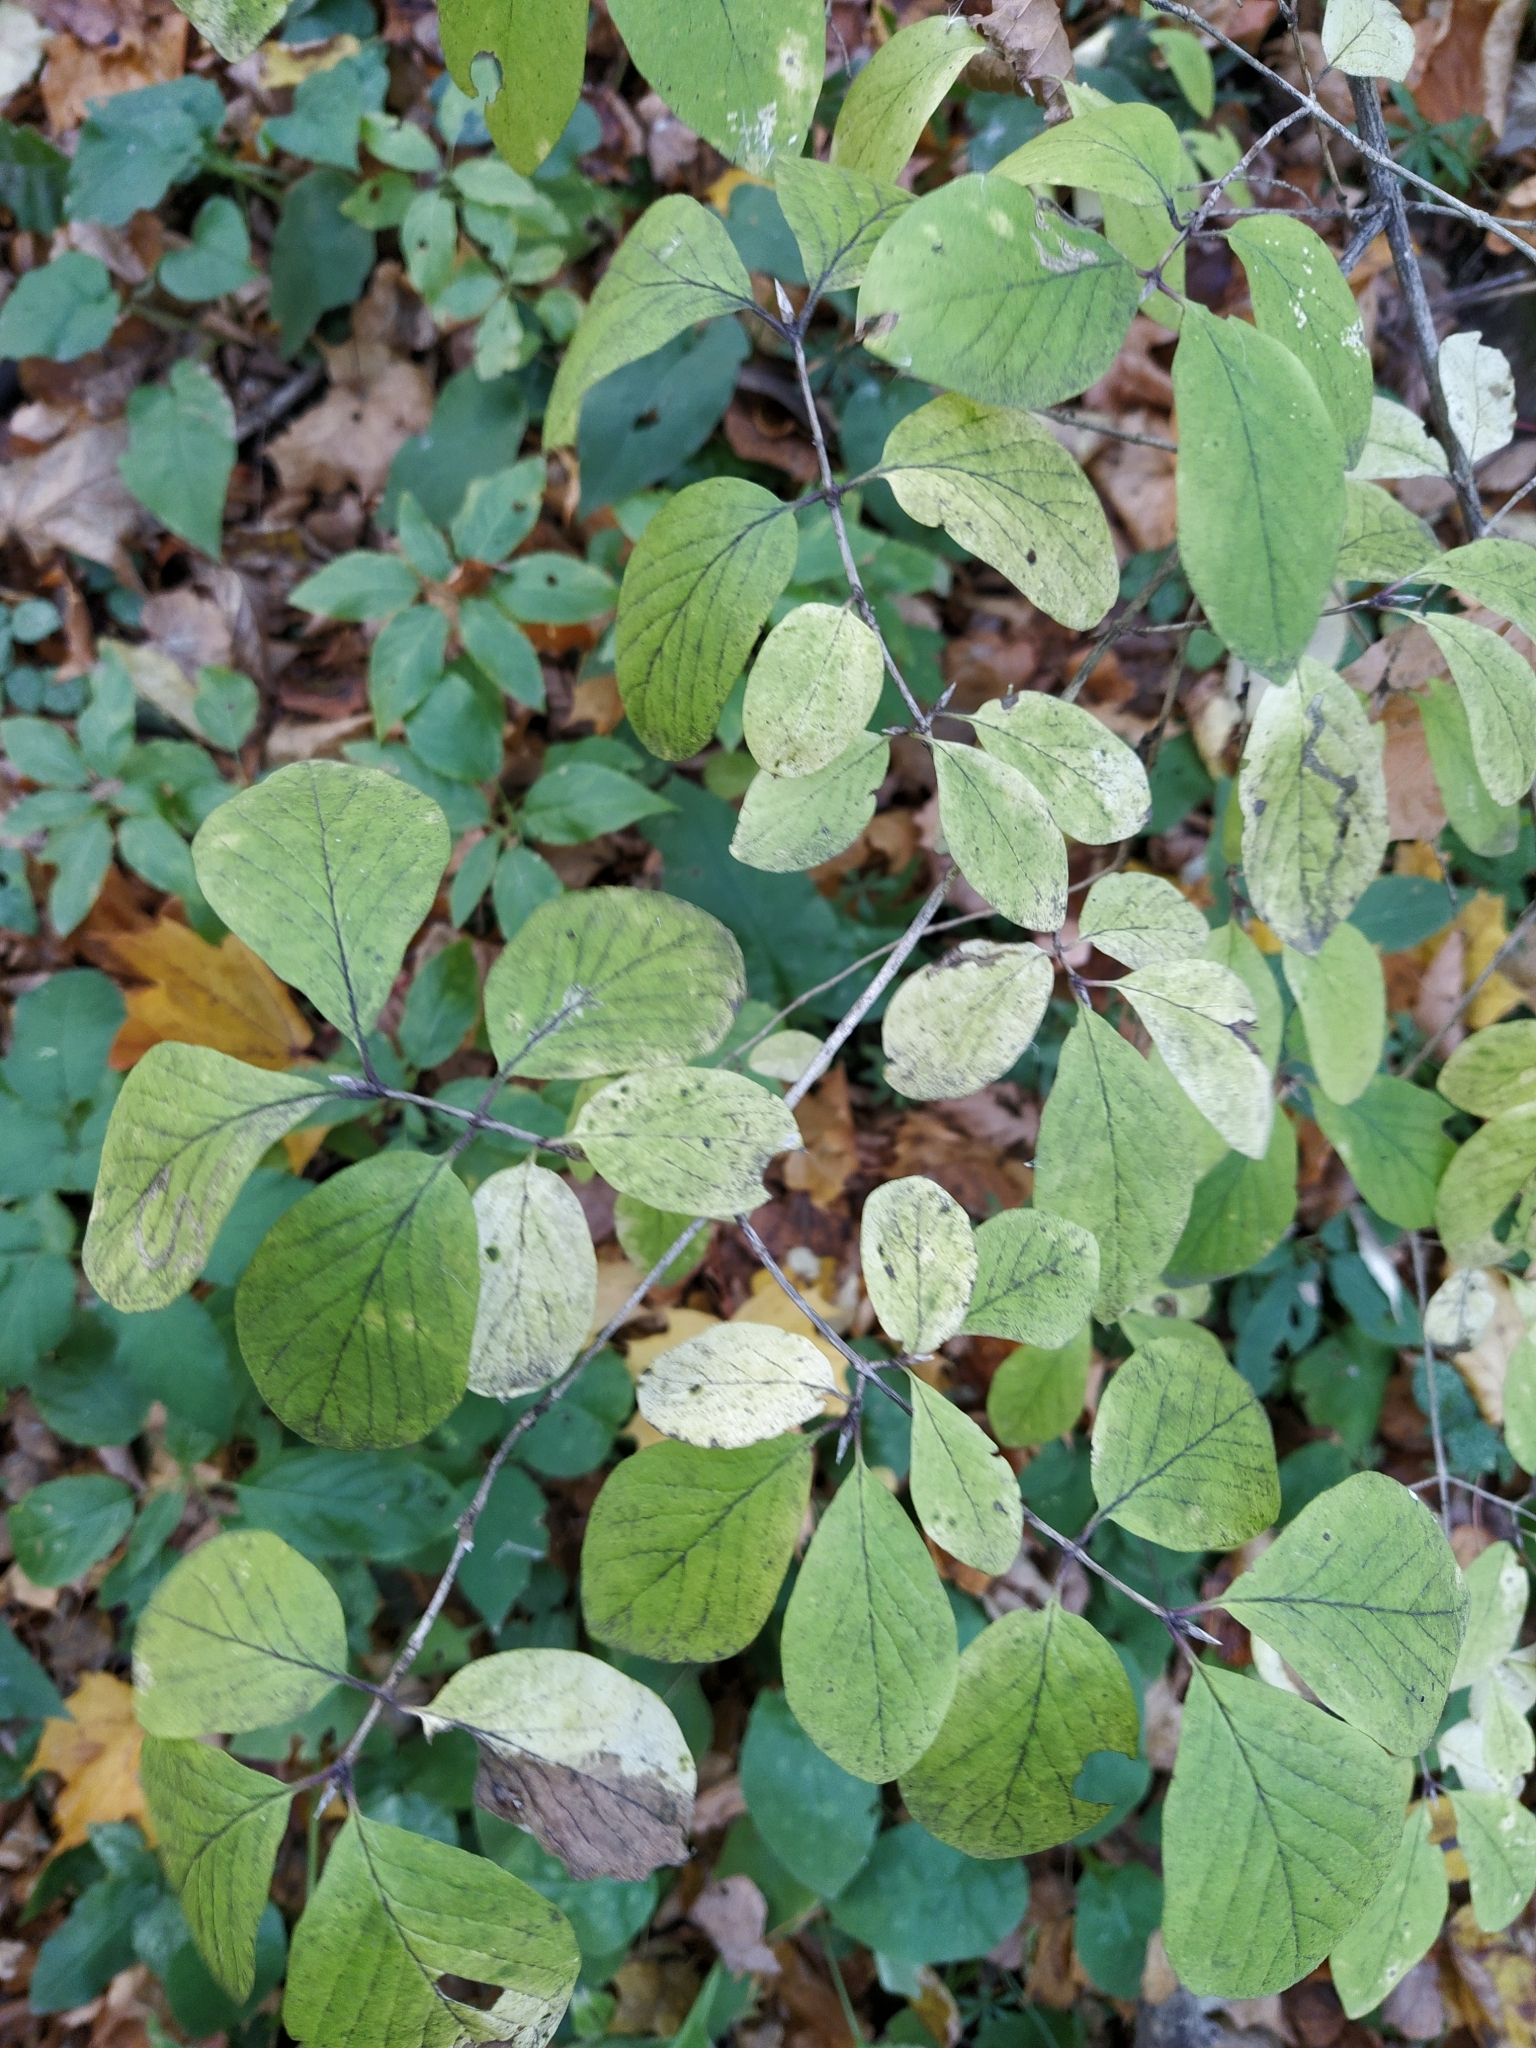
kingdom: Plantae
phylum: Tracheophyta
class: Magnoliopsida
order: Dipsacales
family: Caprifoliaceae
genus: Lonicera
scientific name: Lonicera xylosteum
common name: Fly honeysuckle
